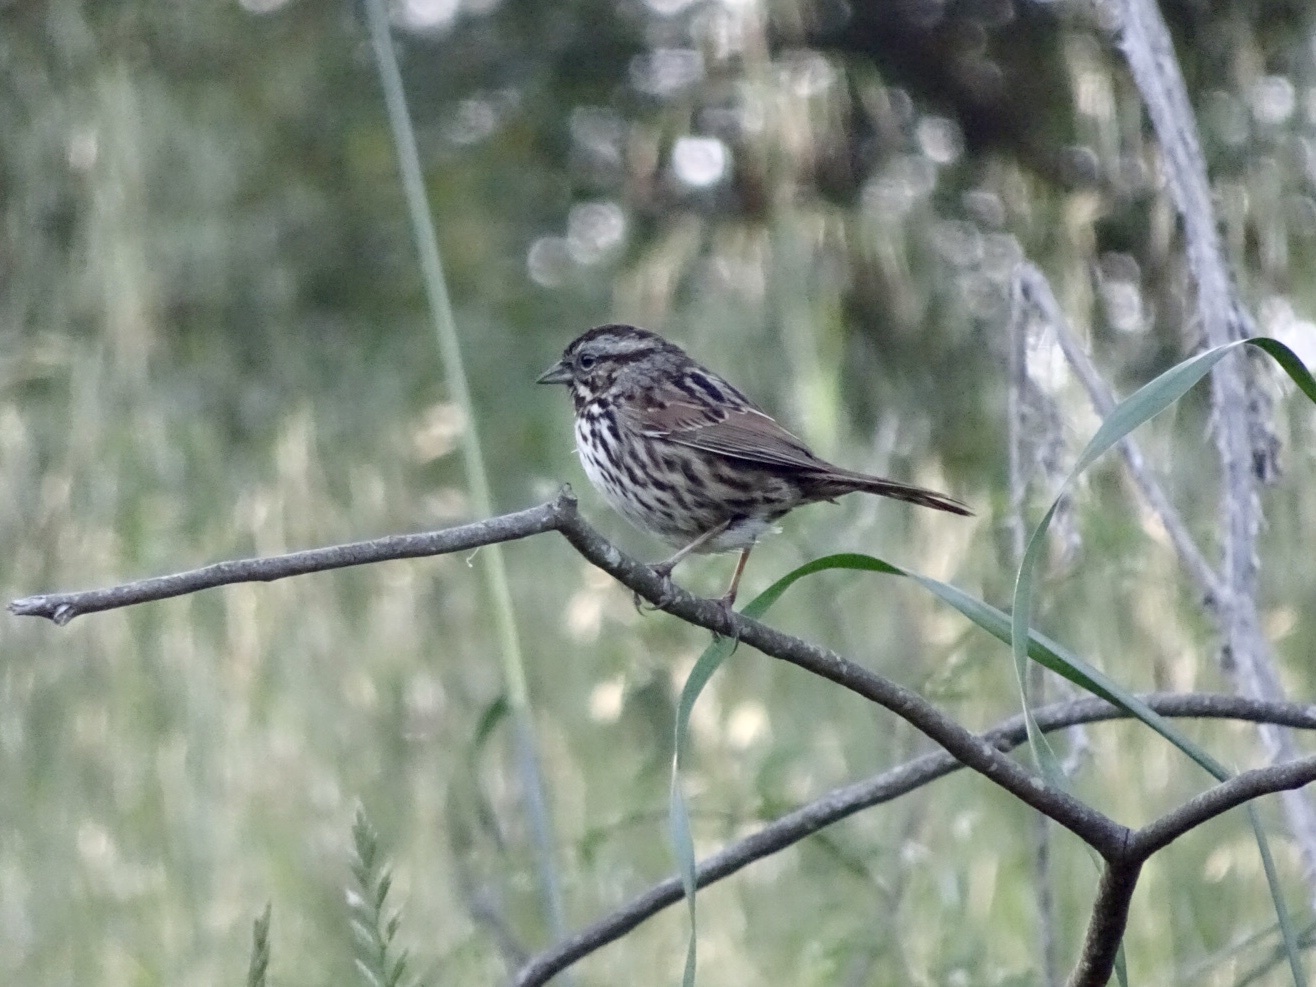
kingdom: Animalia
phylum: Chordata
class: Aves
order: Passeriformes
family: Passerellidae
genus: Melospiza
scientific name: Melospiza melodia
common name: Song sparrow
